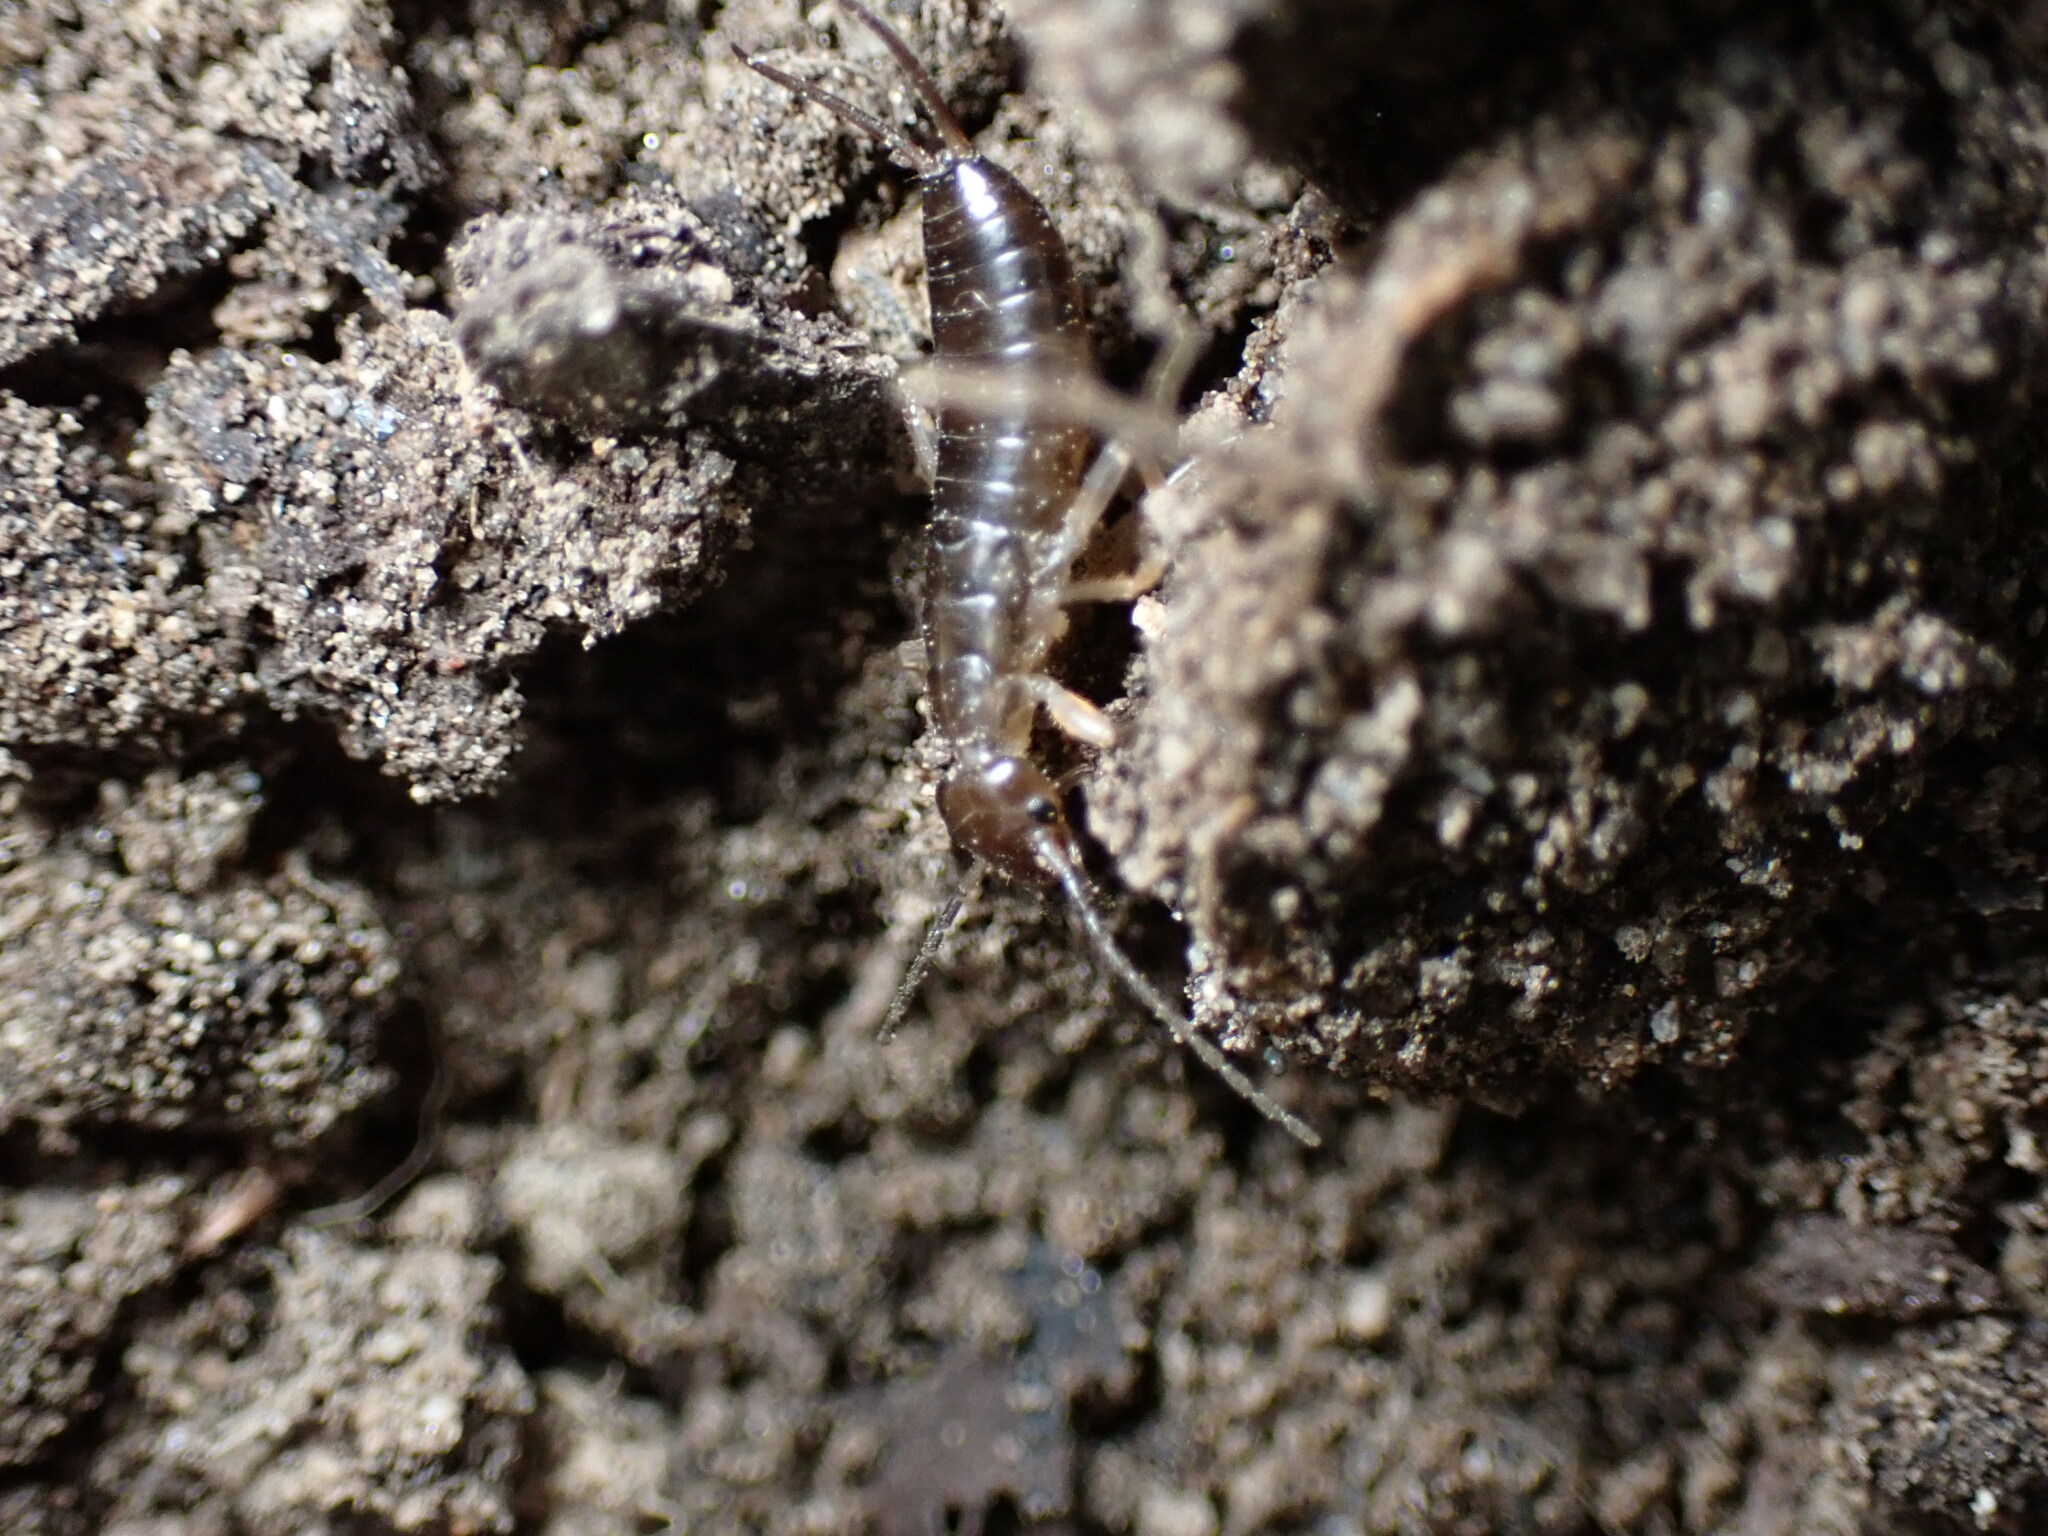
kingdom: Animalia
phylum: Arthropoda
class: Insecta
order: Dermaptera
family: Forficulidae
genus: Forficula
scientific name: Forficula auricularia
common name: European earwig
